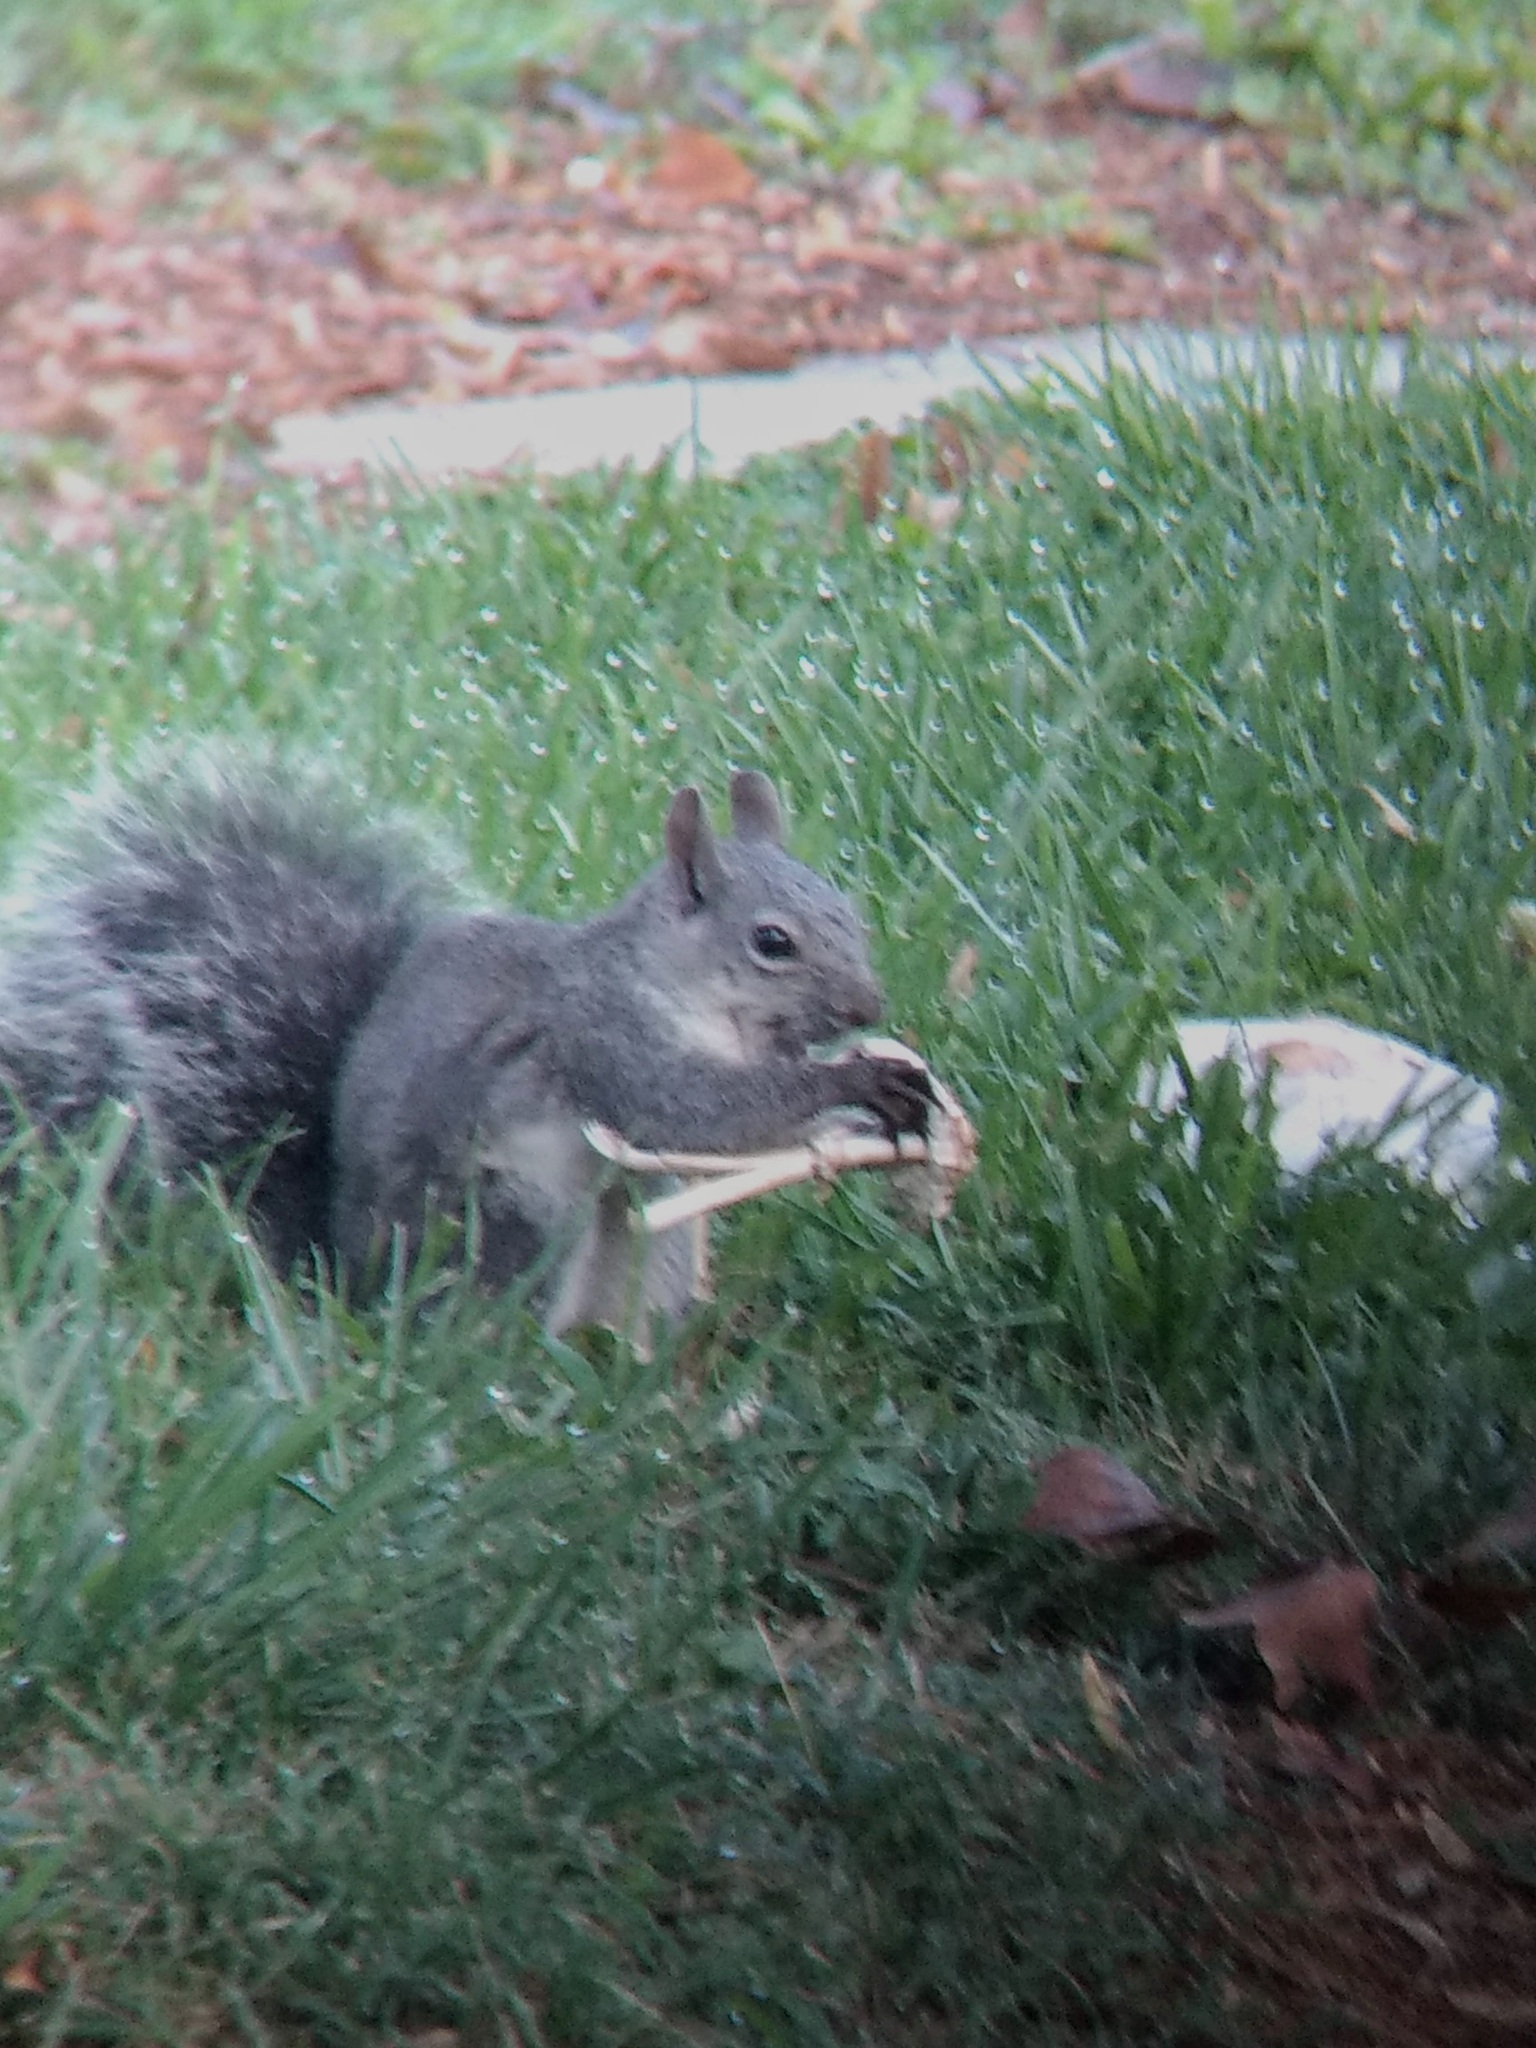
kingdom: Animalia
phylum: Chordata
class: Mammalia
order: Rodentia
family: Sciuridae
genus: Sciurus
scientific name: Sciurus griseus
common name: Western gray squirrel
